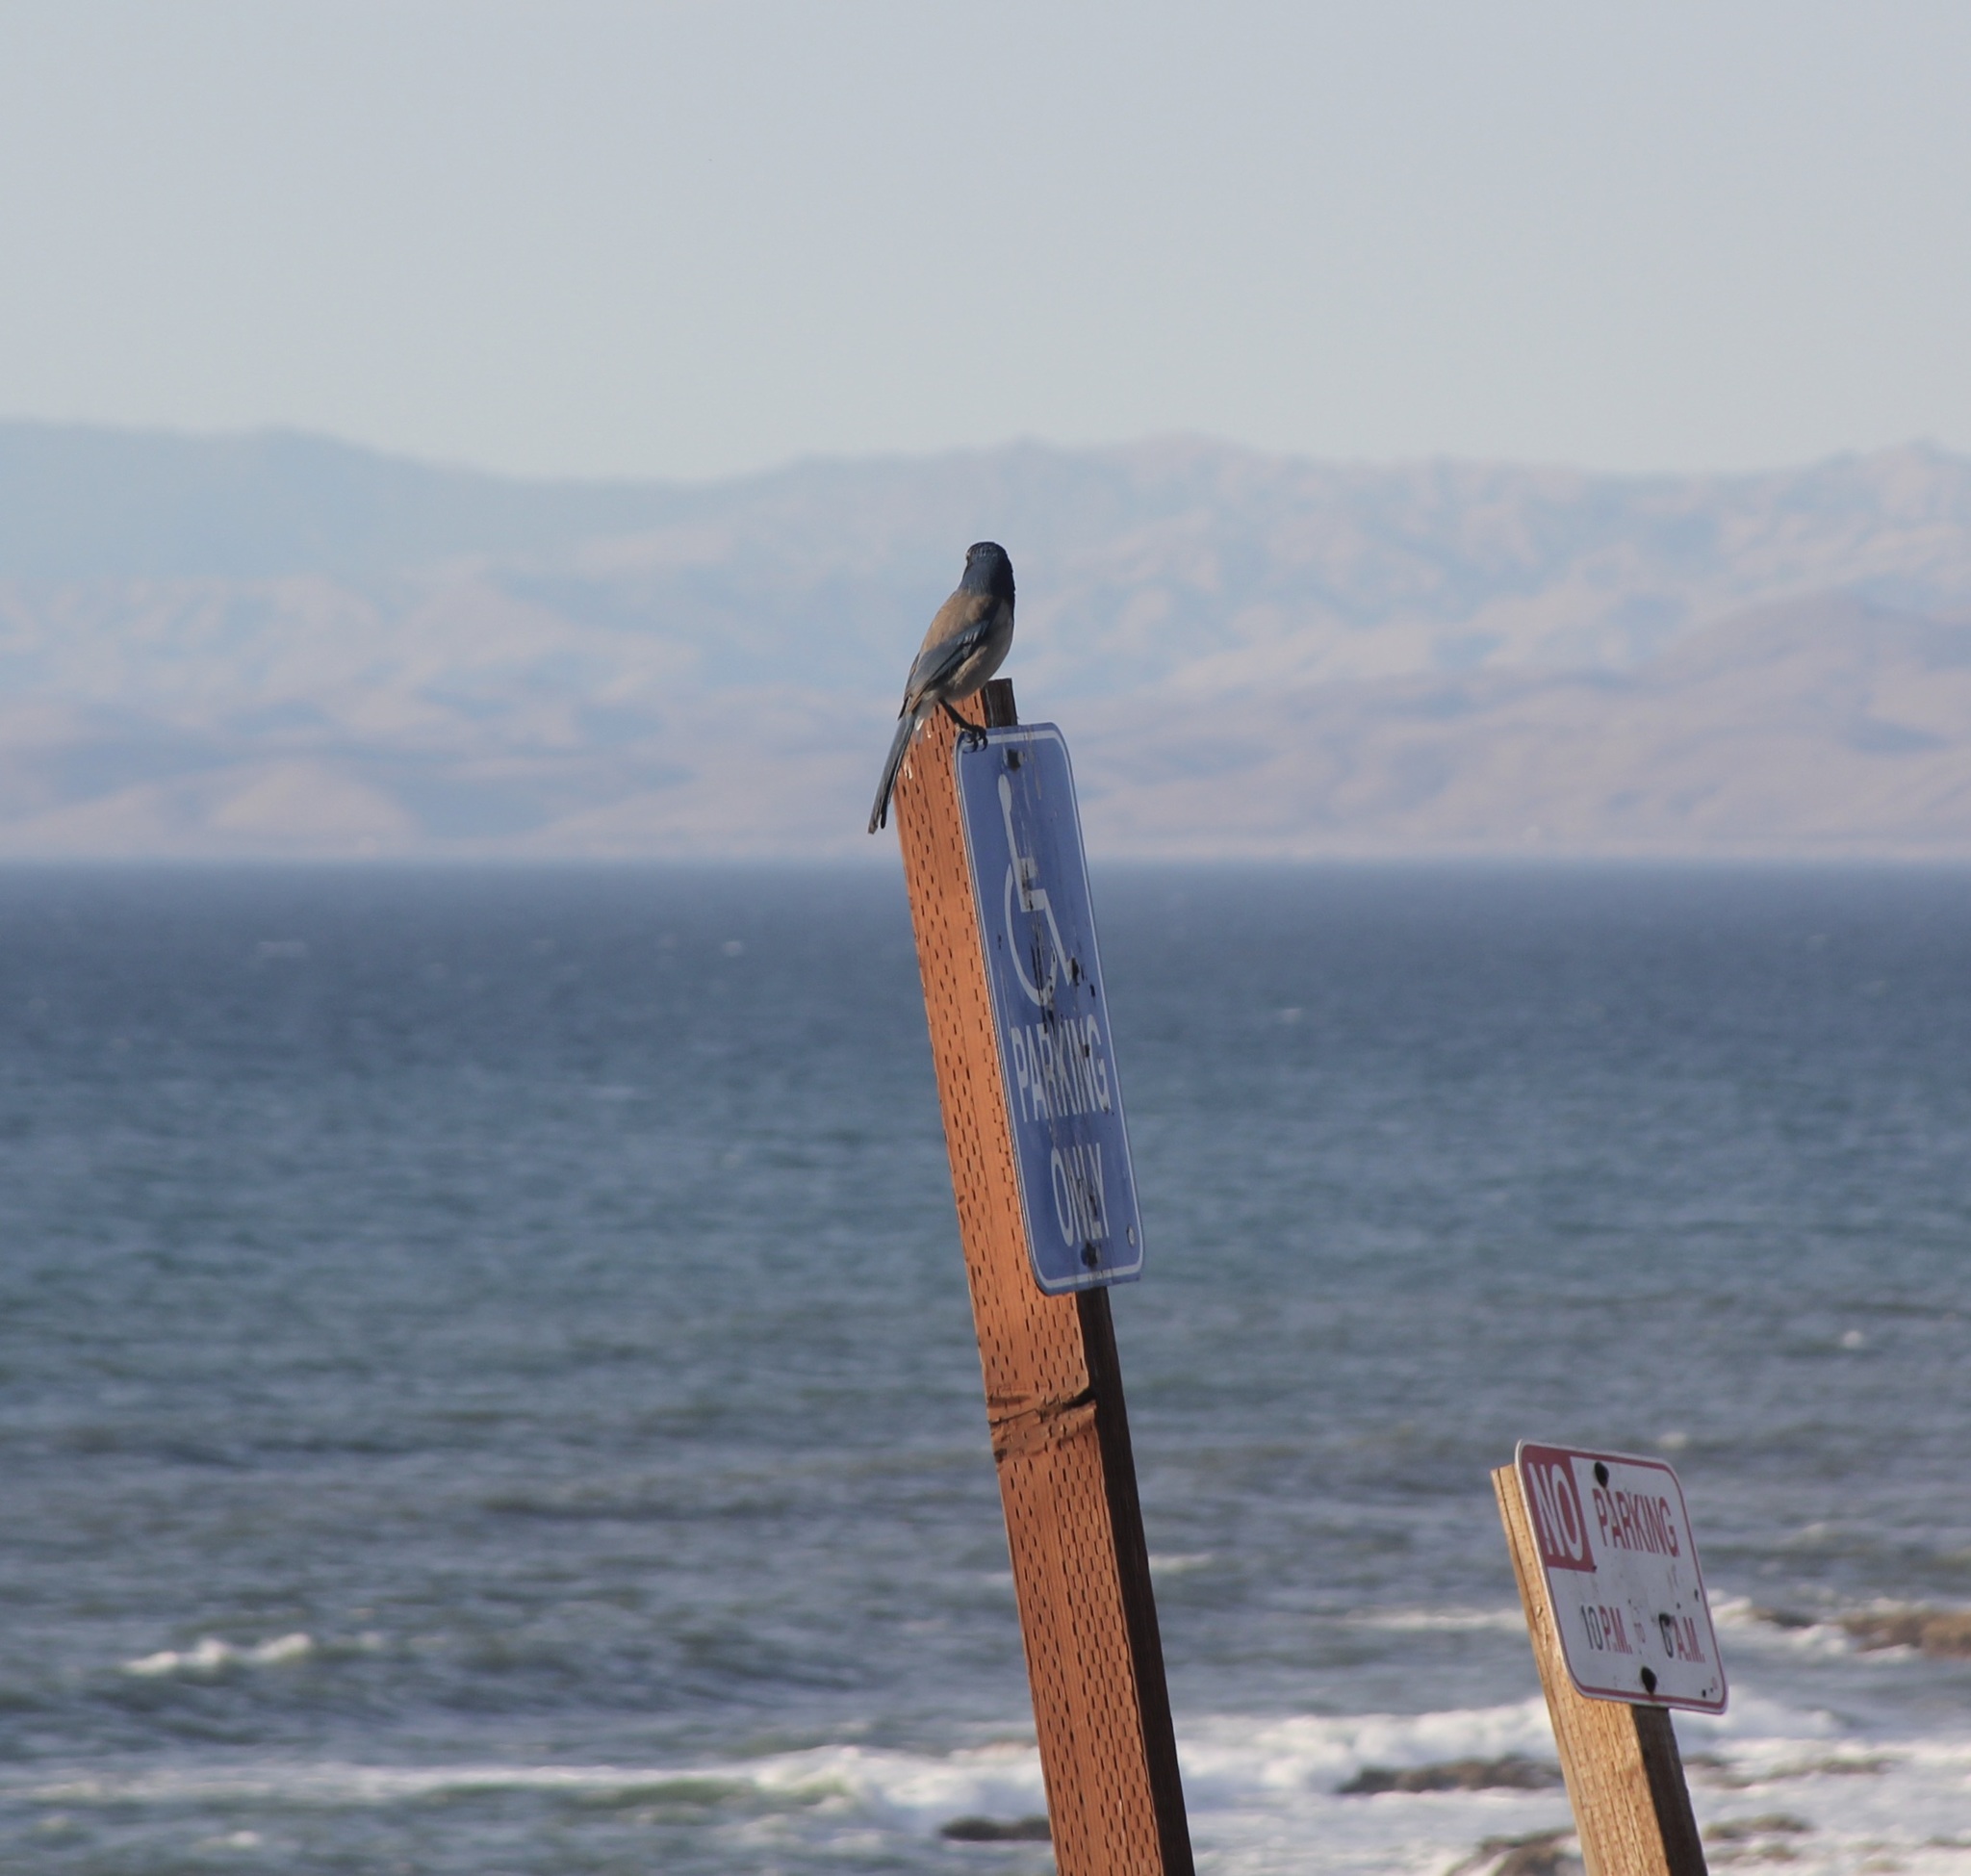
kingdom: Animalia
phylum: Chordata
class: Aves
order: Passeriformes
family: Corvidae
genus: Aphelocoma
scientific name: Aphelocoma californica
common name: California scrub-jay
